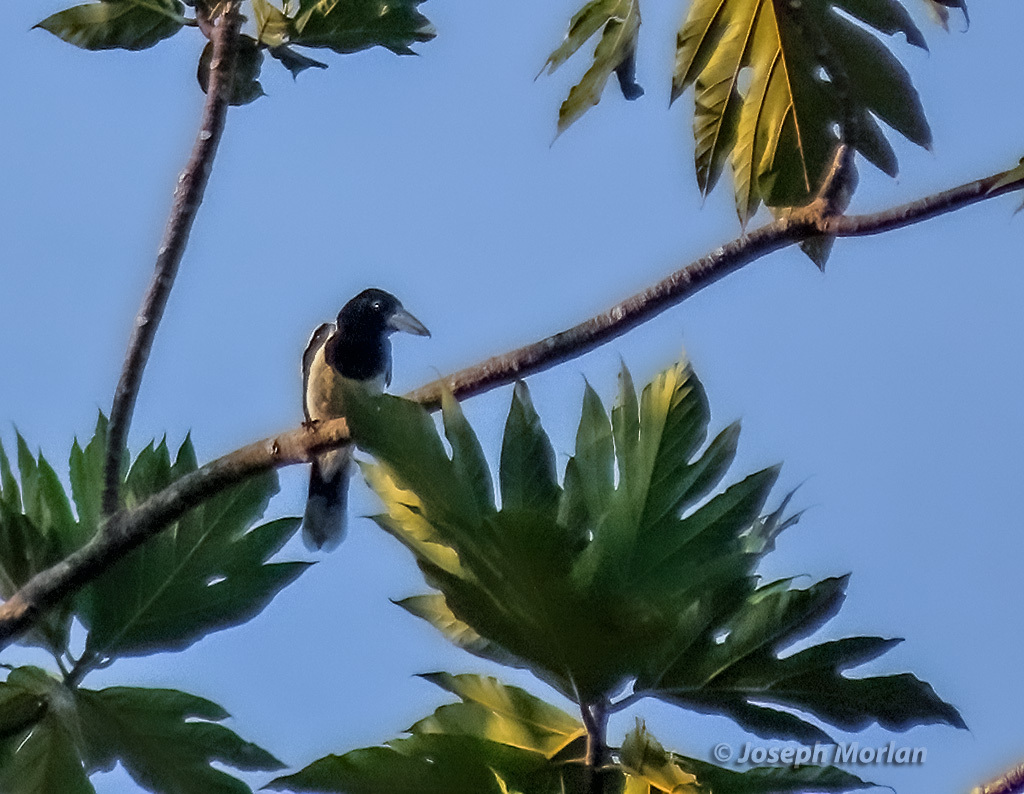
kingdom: Animalia
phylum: Chordata
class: Aves
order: Passeriformes
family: Cracticidae
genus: Cracticus
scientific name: Cracticus cassicus
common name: Hooded butcherbird
